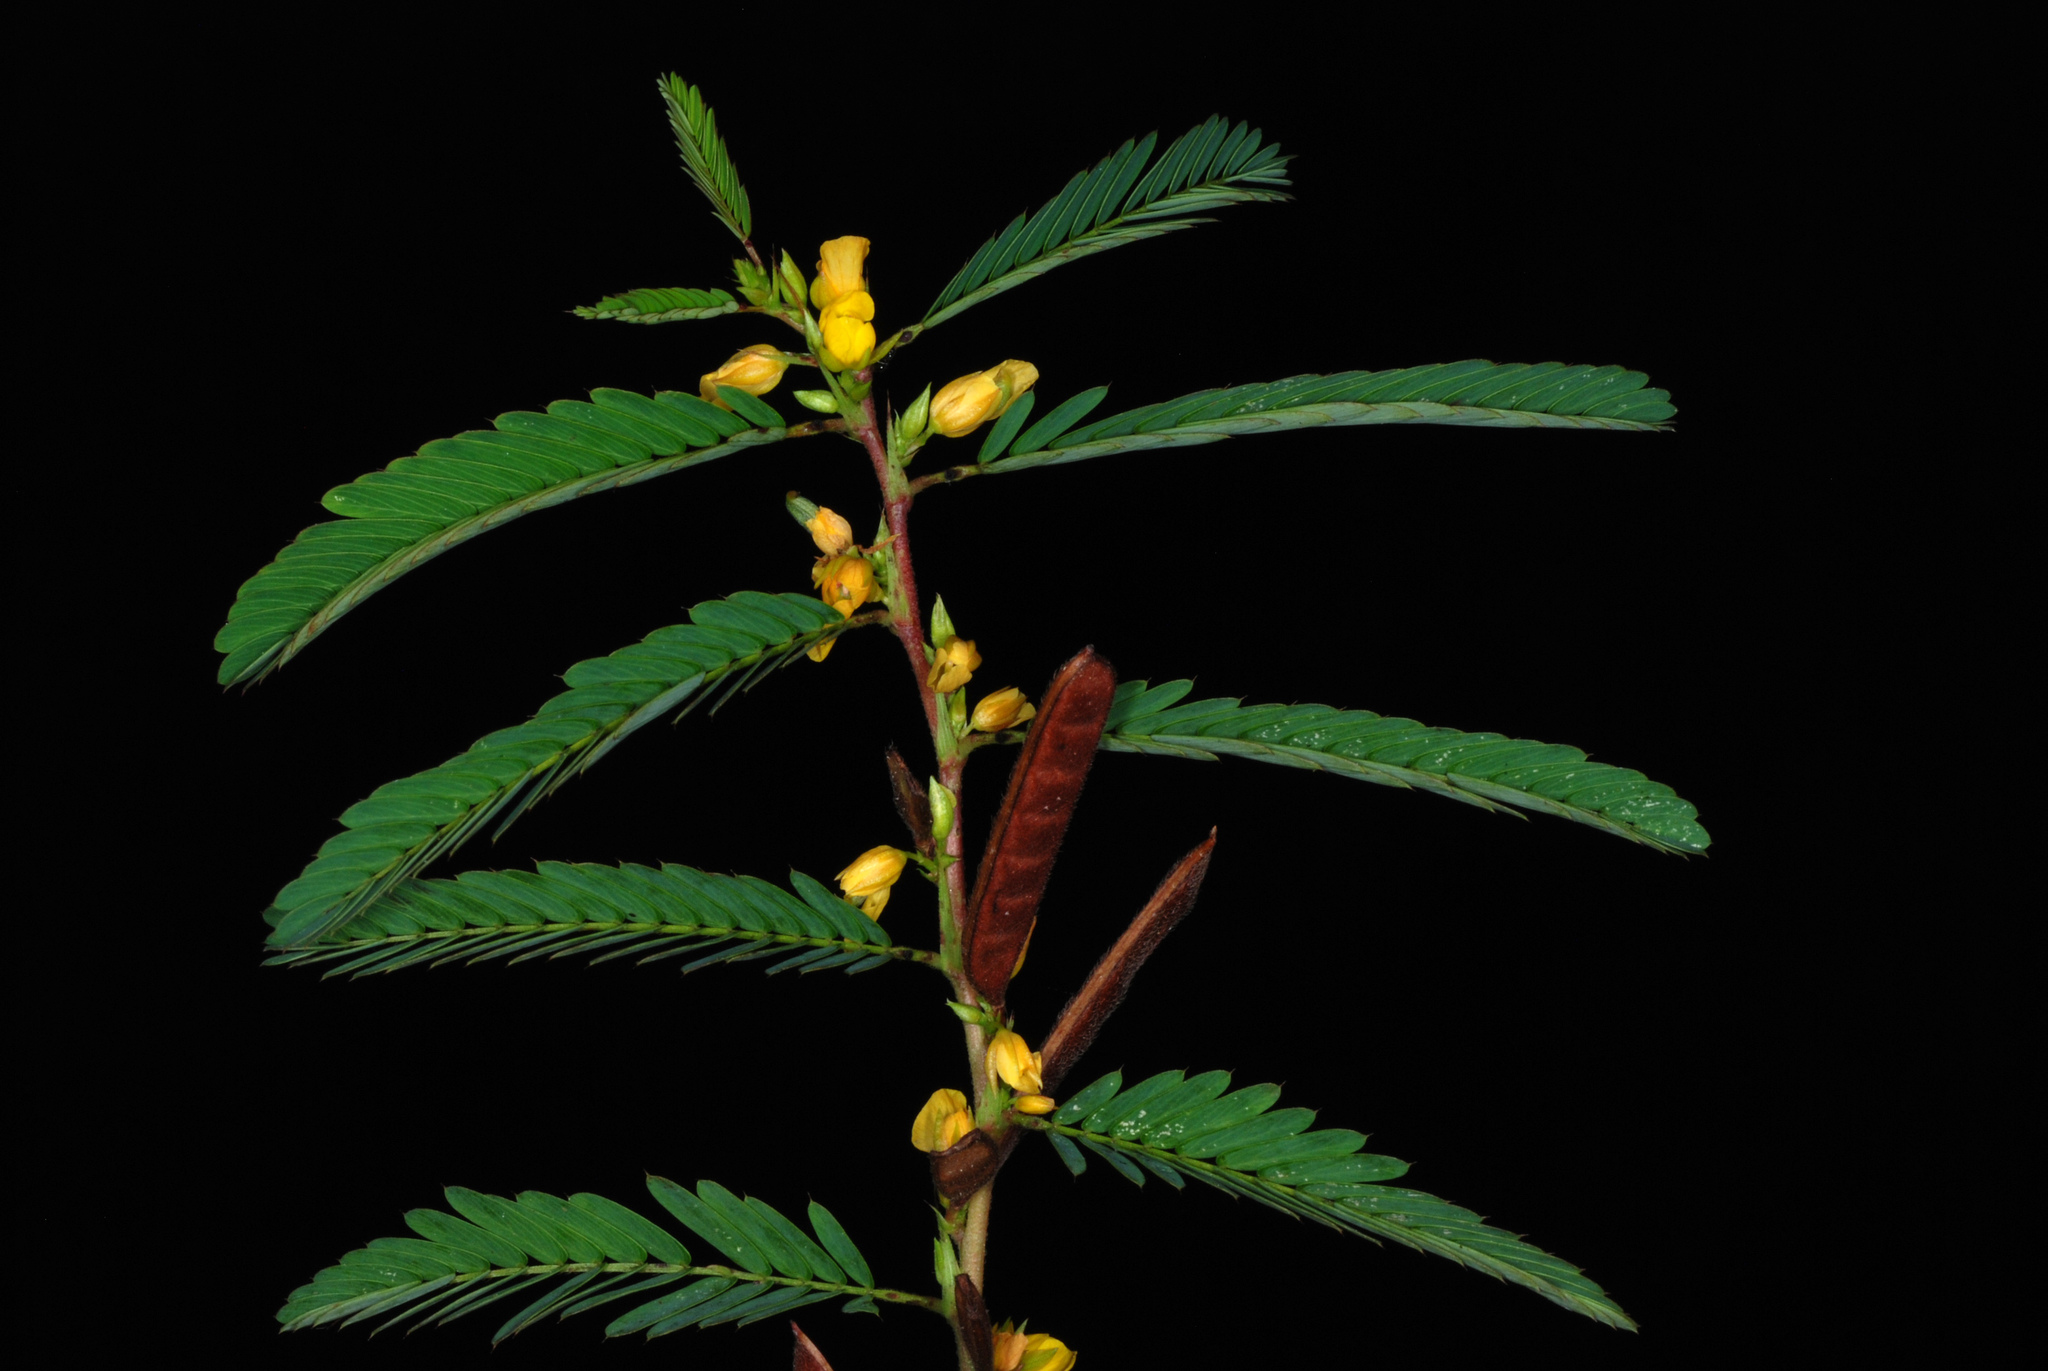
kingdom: Plantae
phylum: Tracheophyta
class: Magnoliopsida
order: Fabales
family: Fabaceae
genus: Chamaecrista
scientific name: Chamaecrista nictitans
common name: Sensitive cassia
